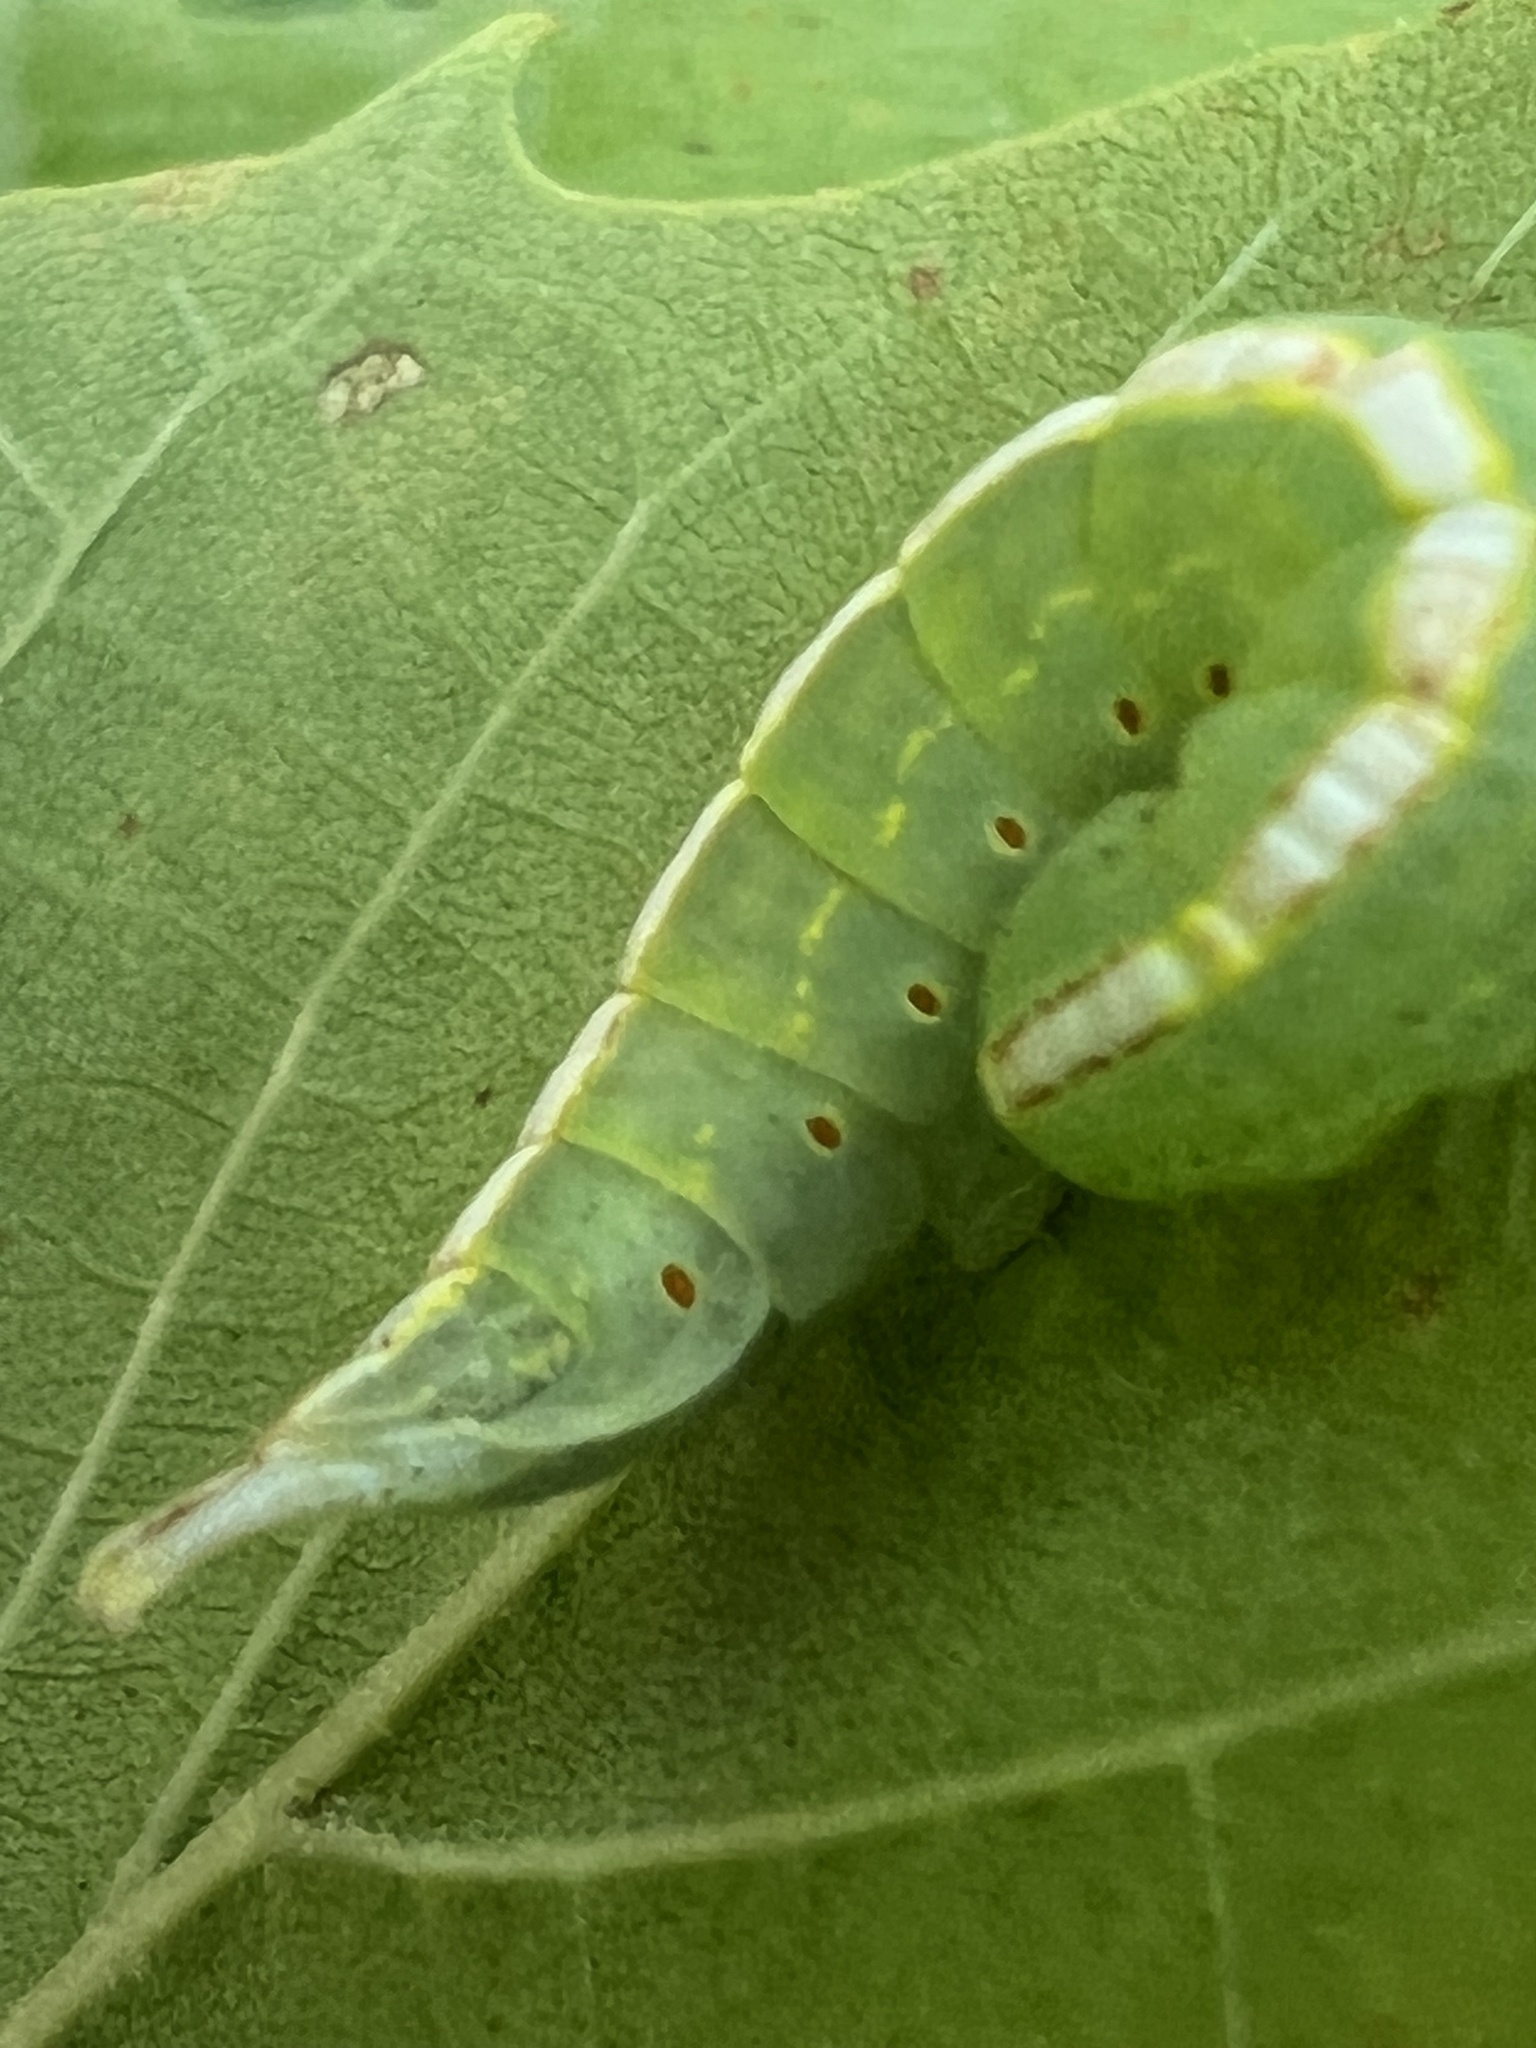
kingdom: Animalia
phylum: Arthropoda
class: Insecta
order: Lepidoptera
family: Notodontidae
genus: Misogada
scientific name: Misogada unicolor
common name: Drab prominent
